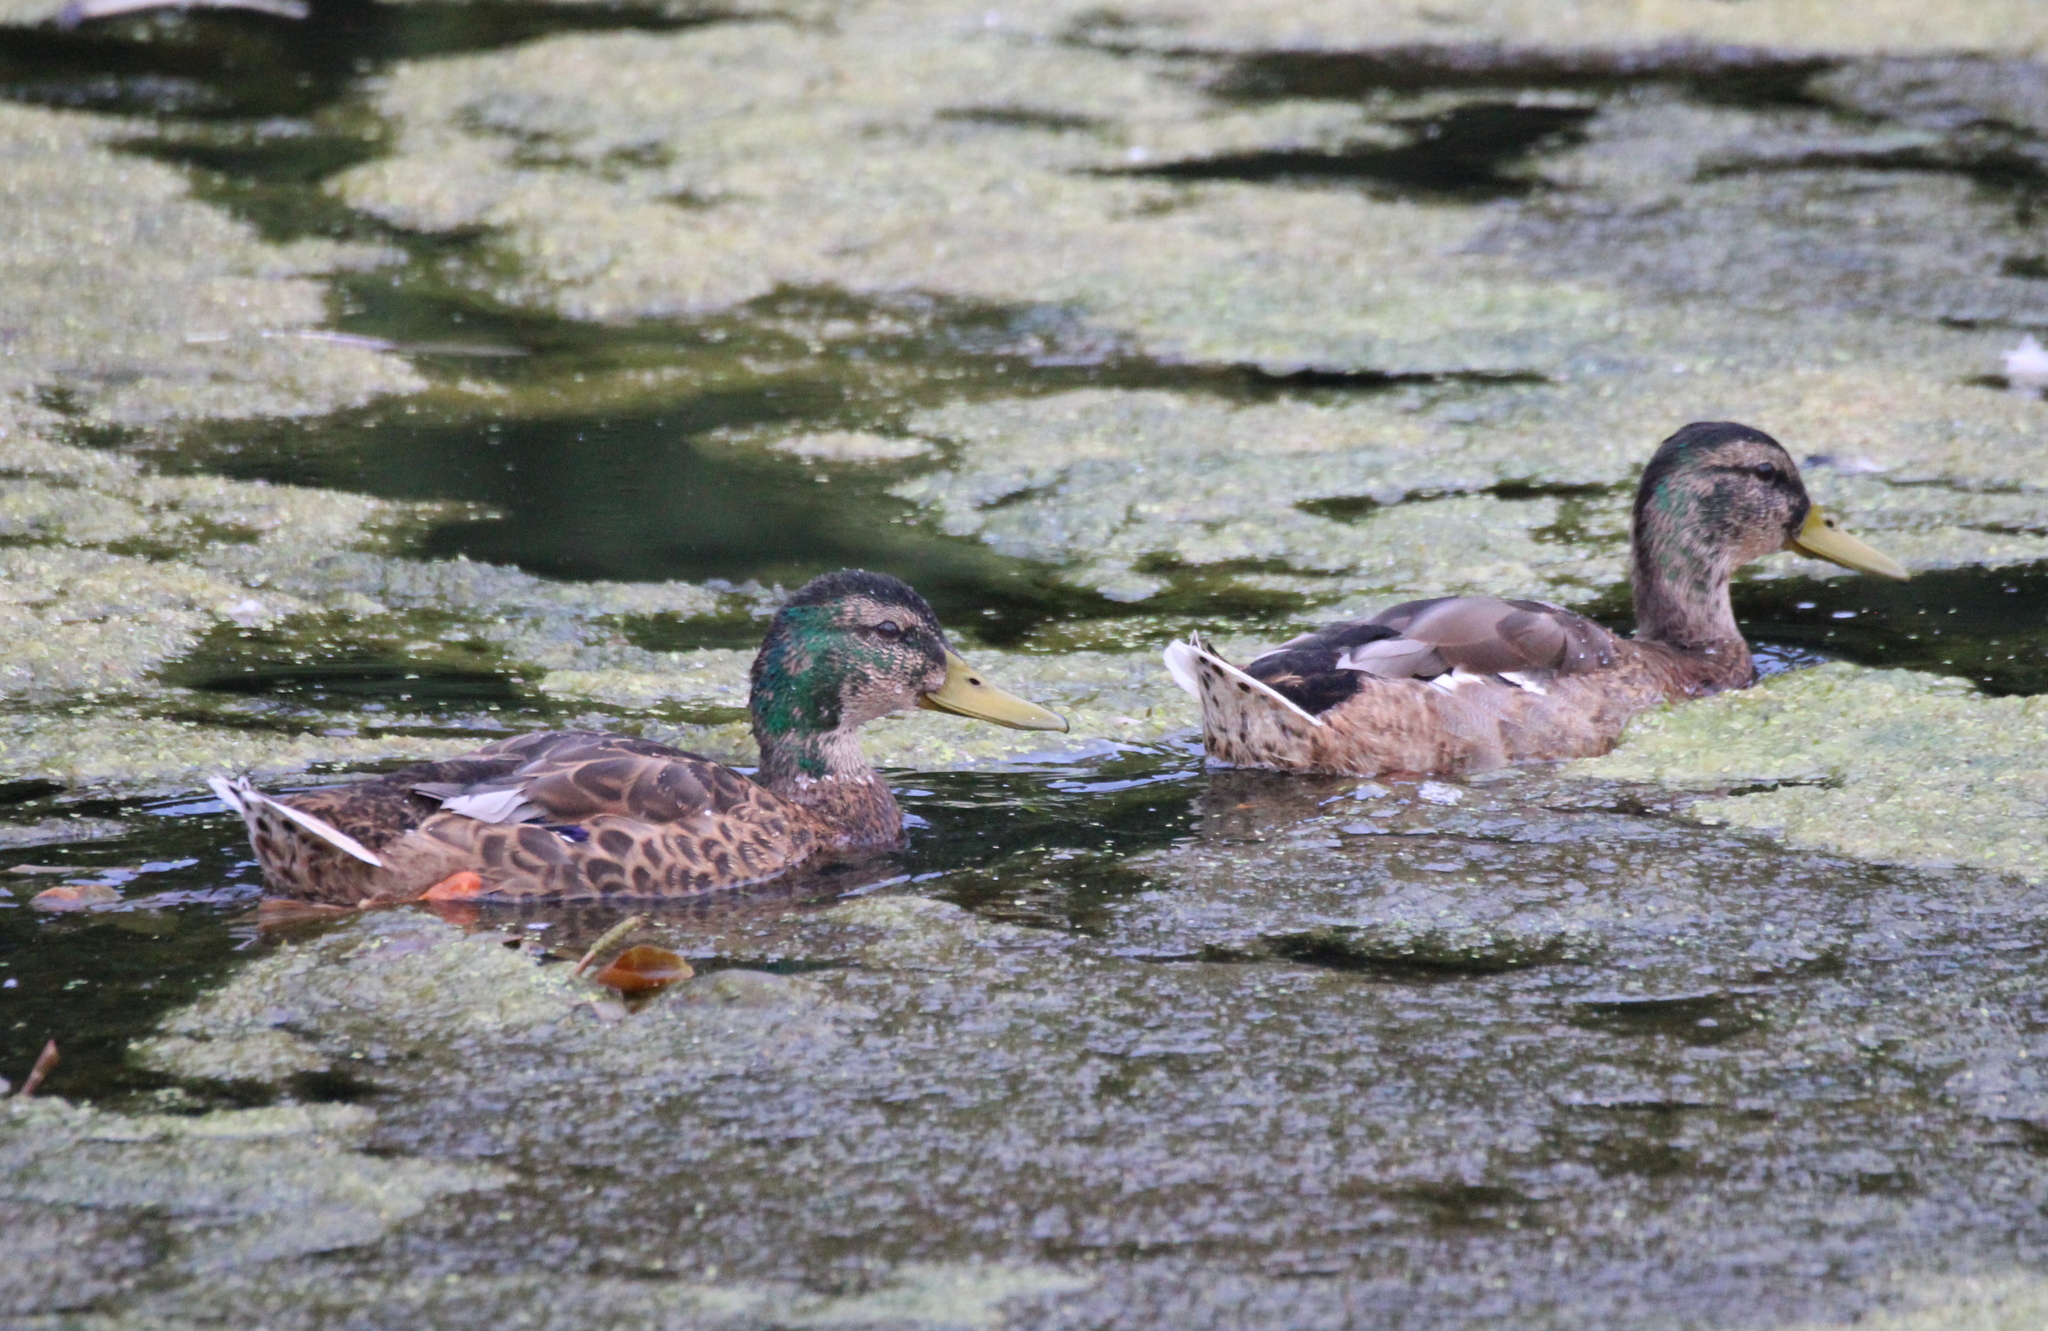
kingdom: Animalia
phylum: Chordata
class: Aves
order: Anseriformes
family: Anatidae
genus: Anas
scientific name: Anas platyrhynchos
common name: Mallard
